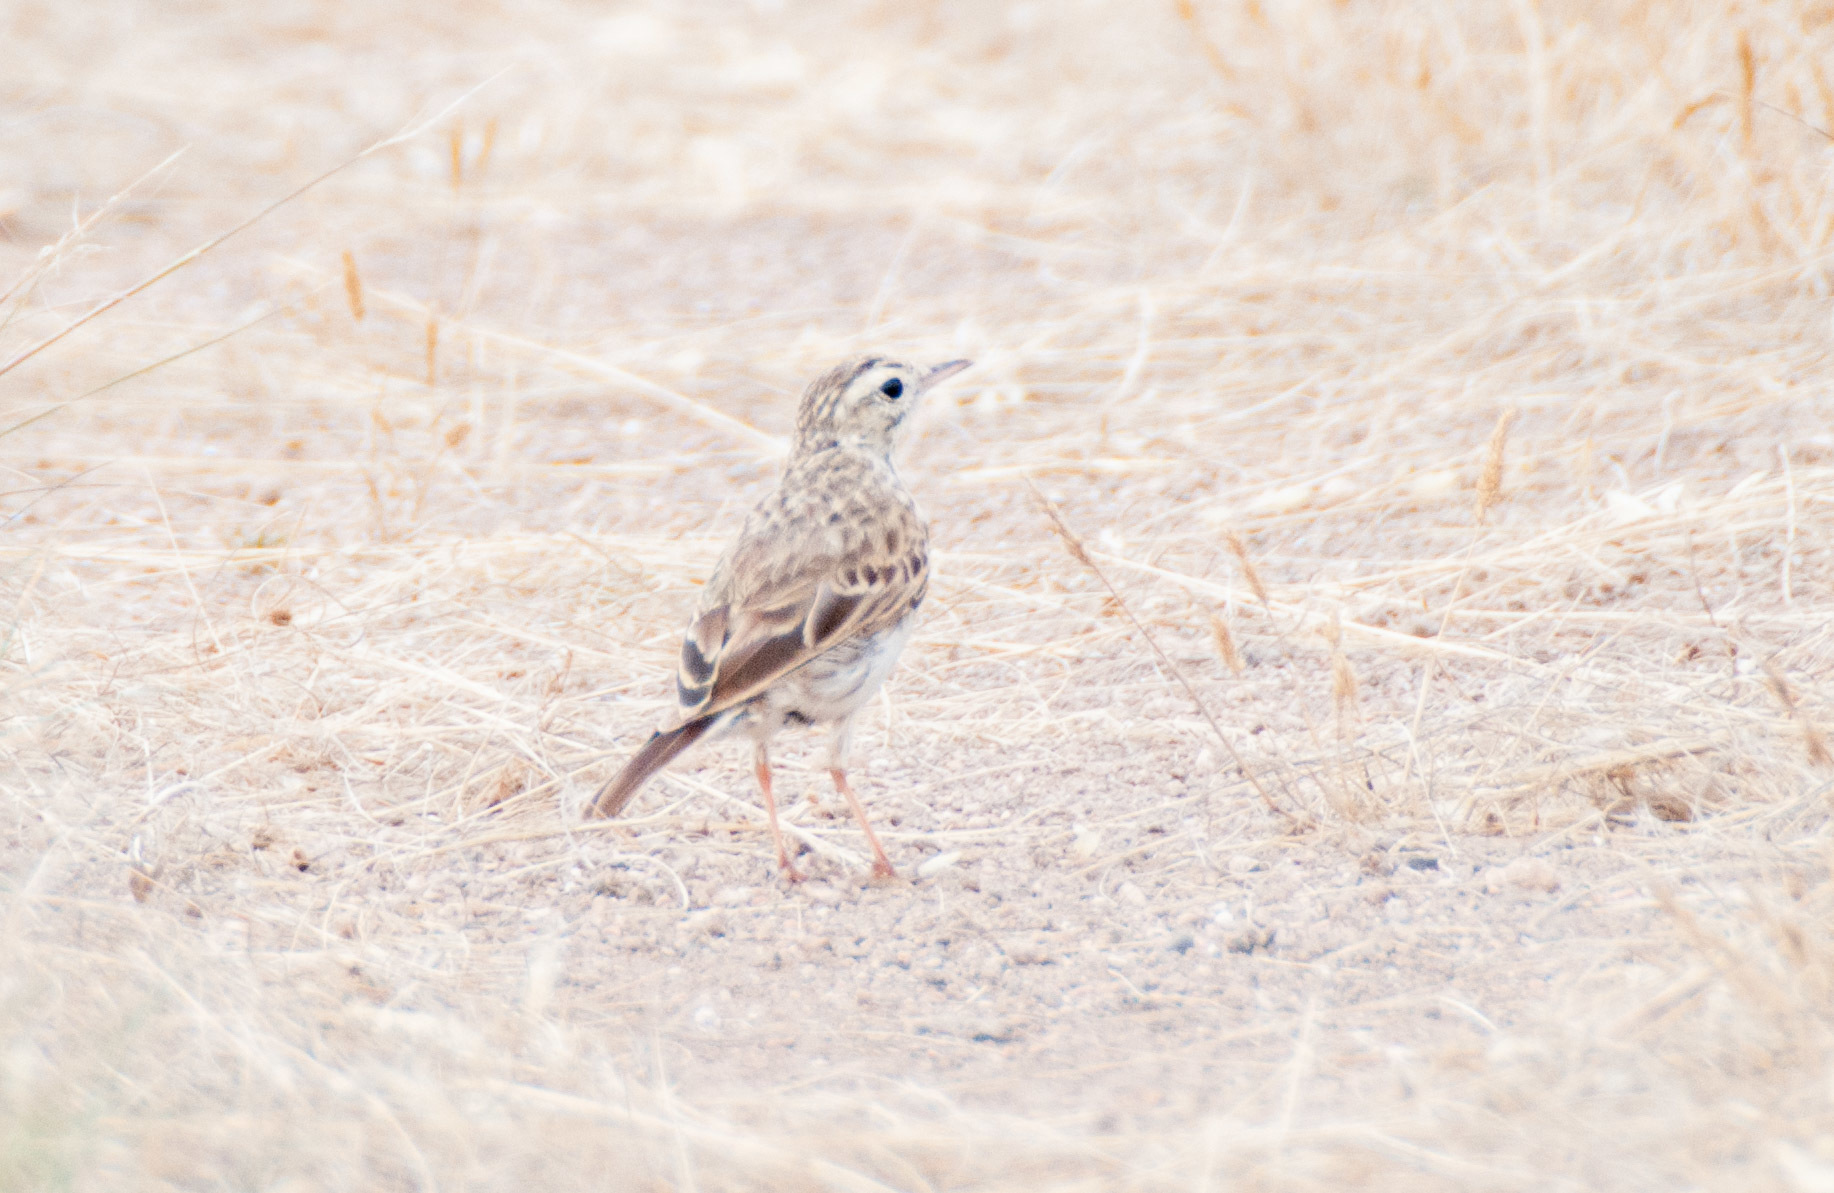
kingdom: Animalia
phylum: Chordata
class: Aves
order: Passeriformes
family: Motacillidae
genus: Anthus
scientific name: Anthus australis
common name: Australian pipit
